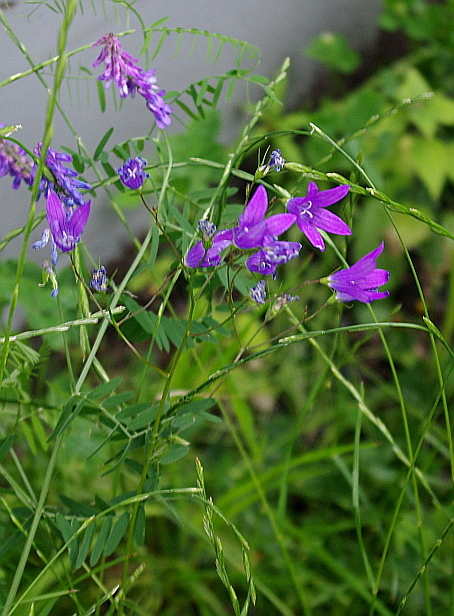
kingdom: Plantae
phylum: Tracheophyta
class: Magnoliopsida
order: Asterales
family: Campanulaceae
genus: Campanula
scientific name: Campanula patula
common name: Spreading bellflower
